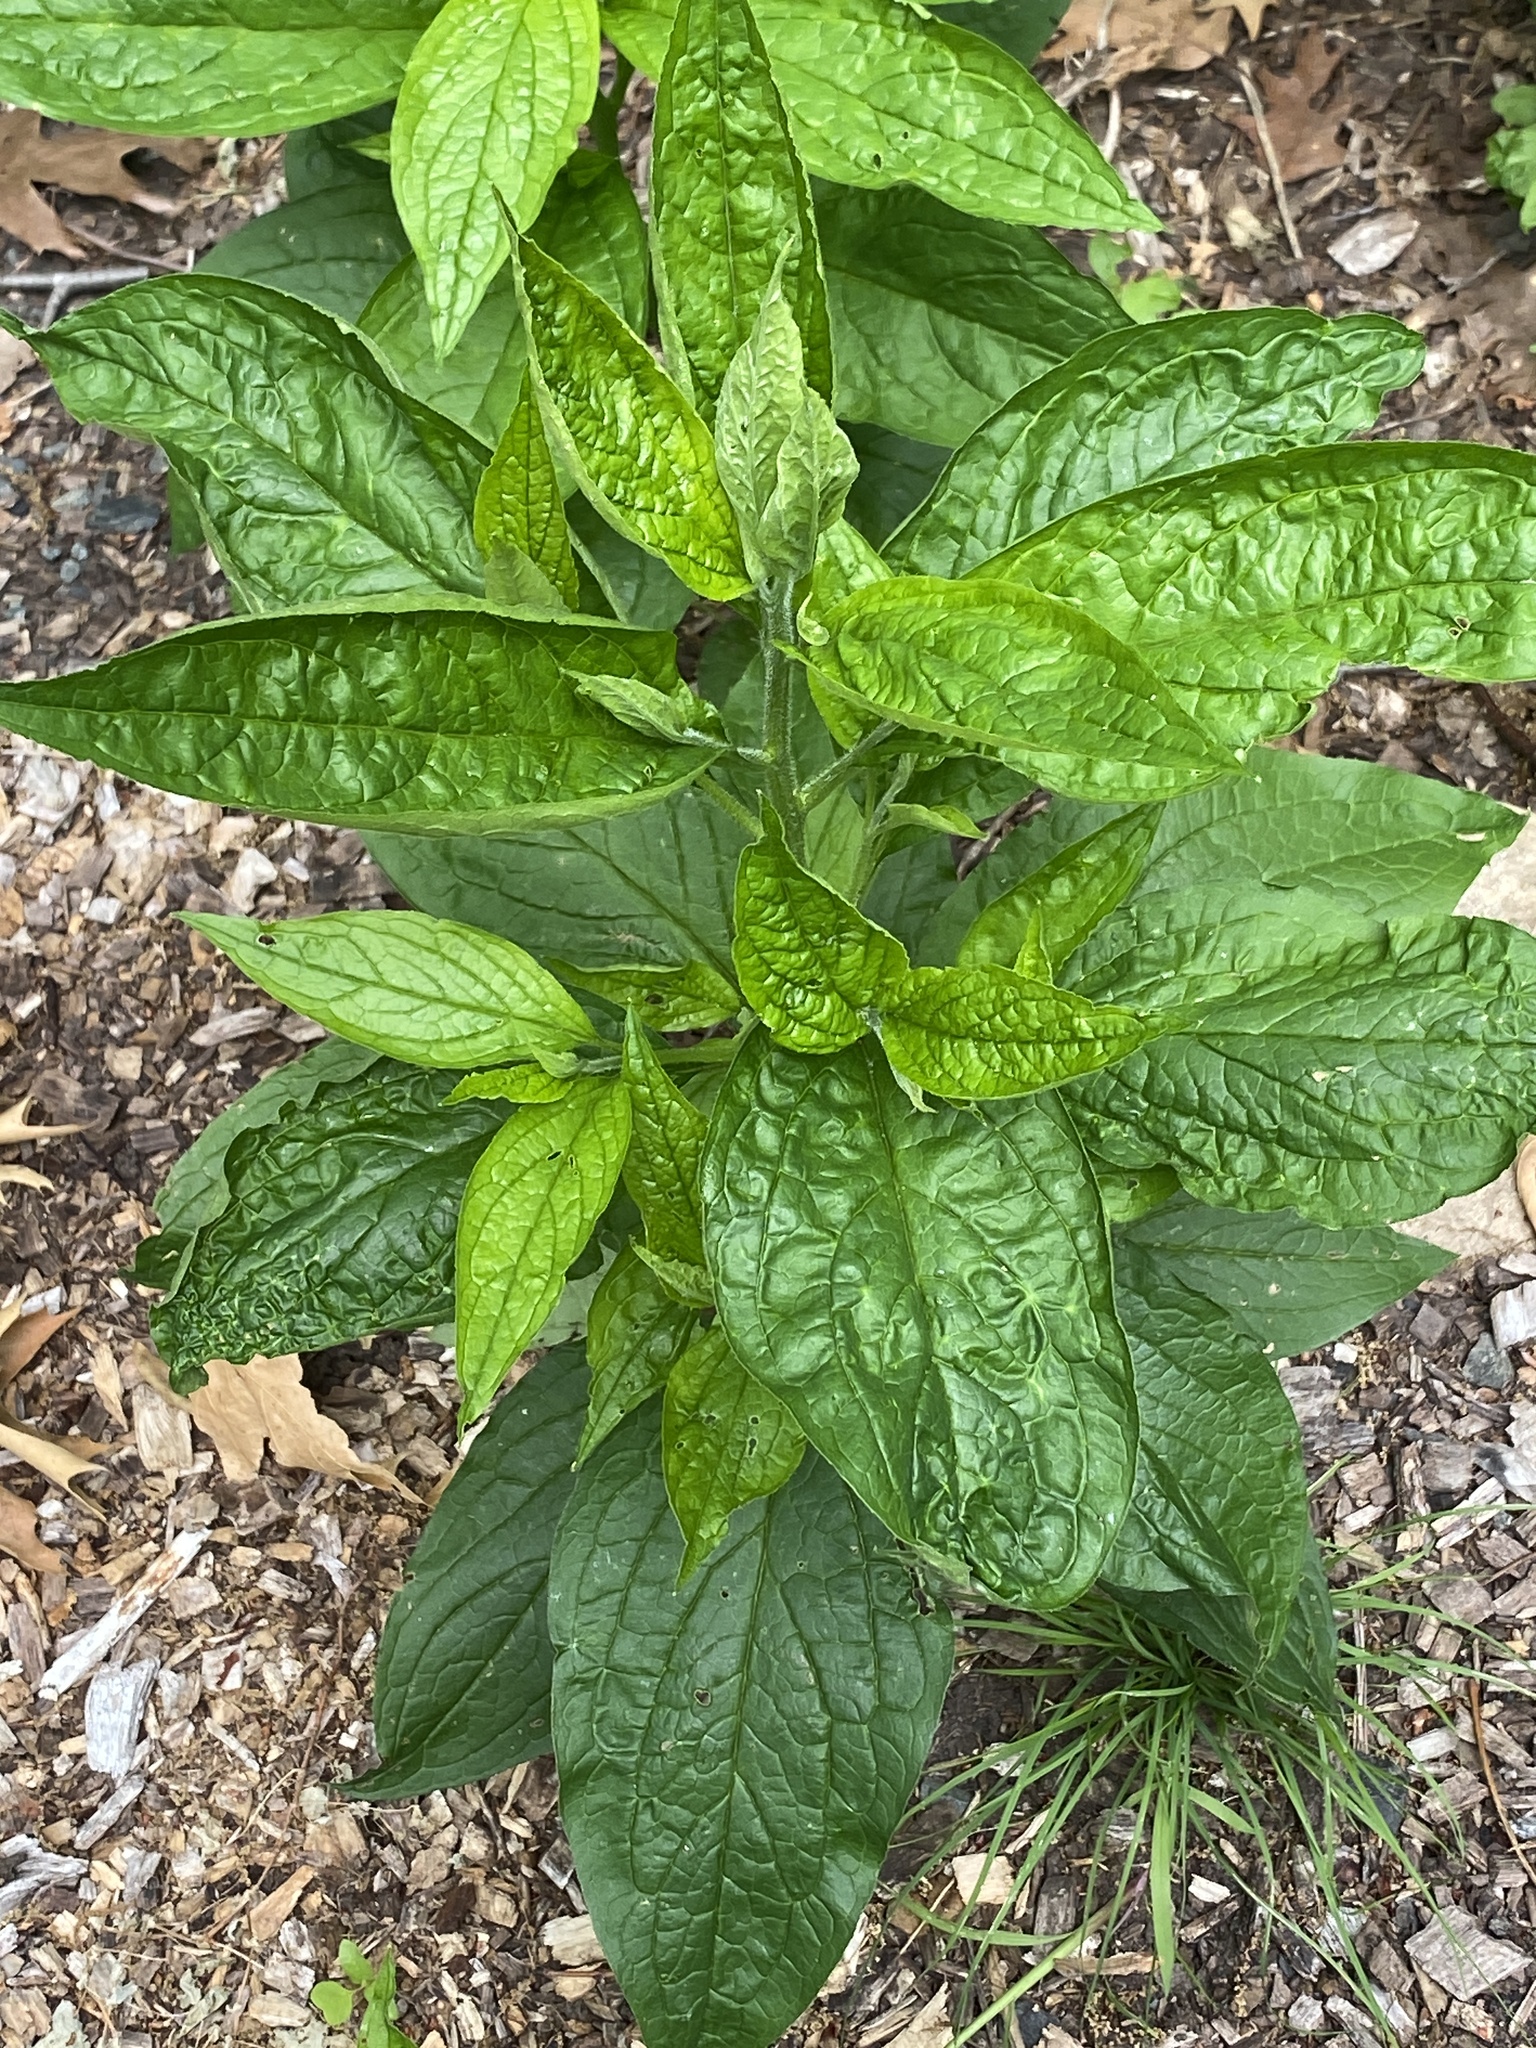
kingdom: Plantae
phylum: Tracheophyta
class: Magnoliopsida
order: Boraginales
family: Boraginaceae
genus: Hackelia
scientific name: Hackelia virginiana
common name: Beggar's-lice
